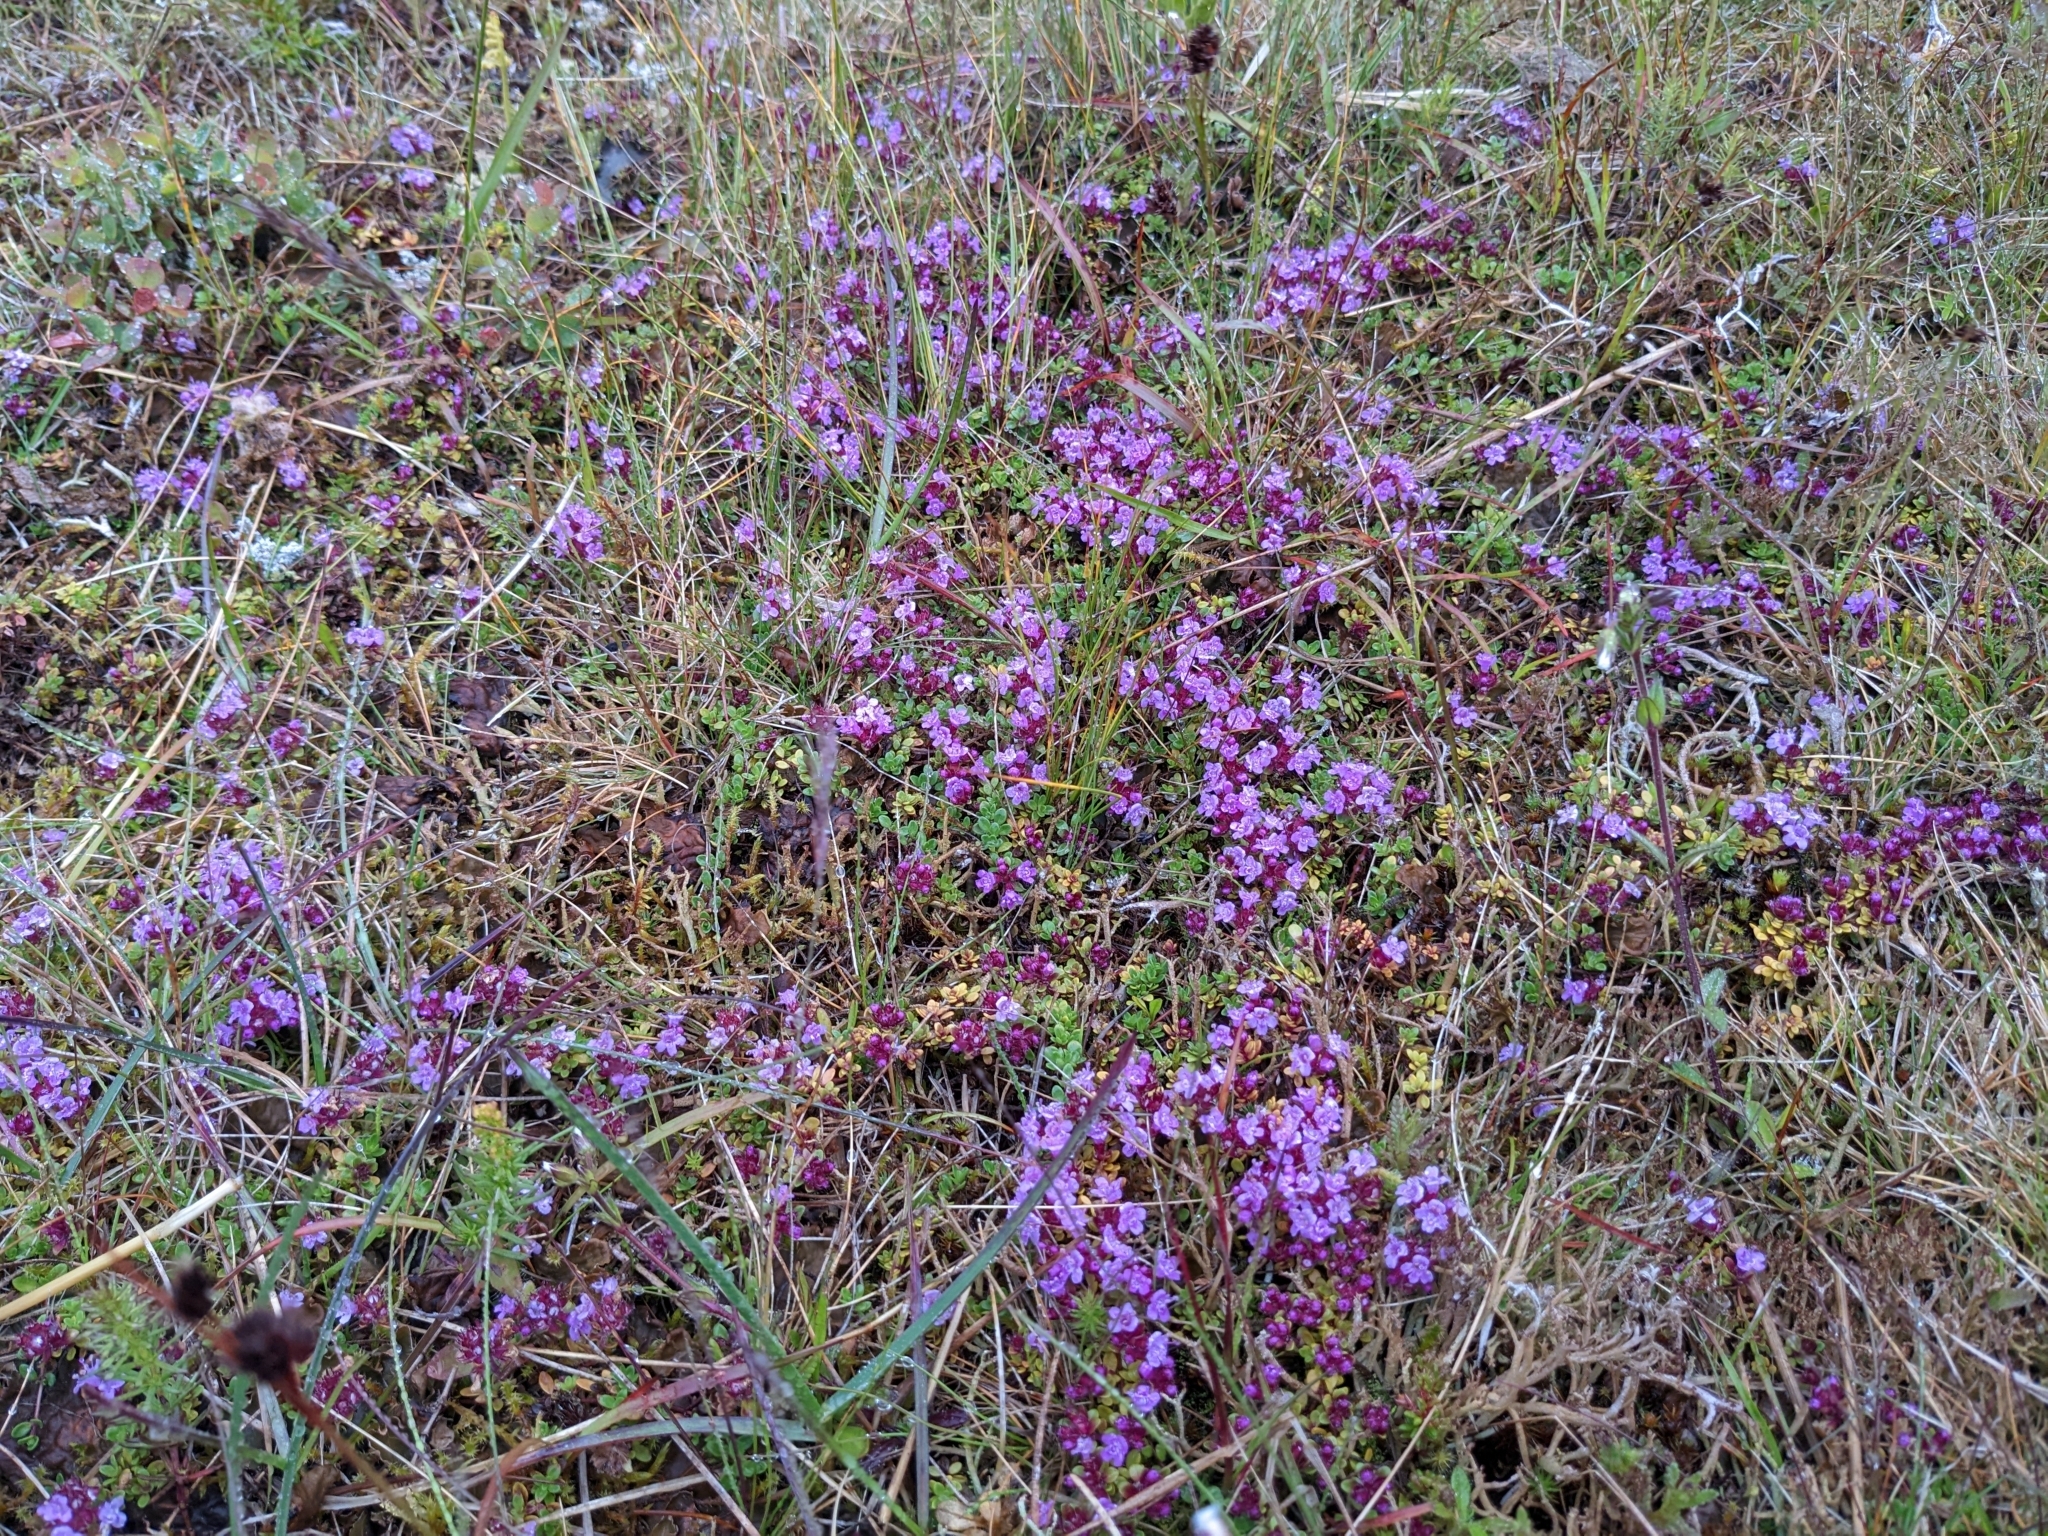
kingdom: Plantae
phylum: Tracheophyta
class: Magnoliopsida
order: Lamiales
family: Lamiaceae
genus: Thymus
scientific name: Thymus praecox
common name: Wild thyme
